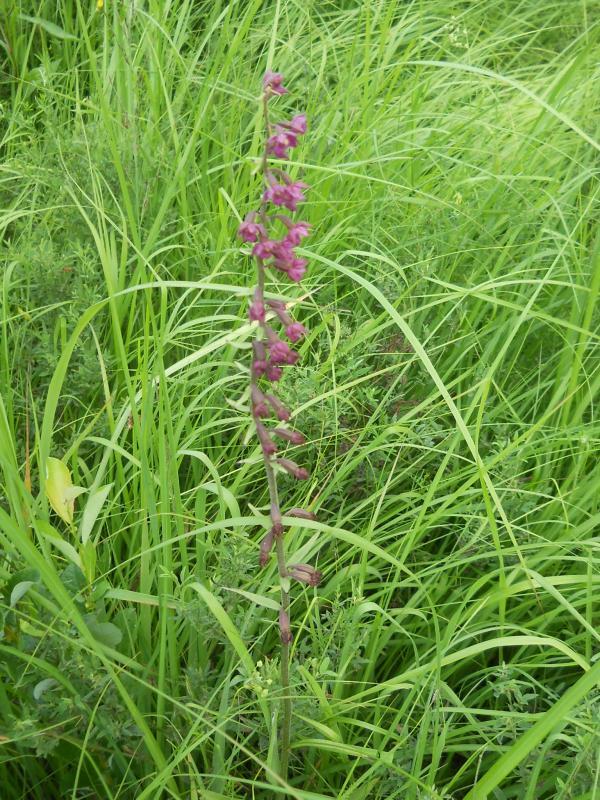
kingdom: Plantae
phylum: Tracheophyta
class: Liliopsida
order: Asparagales
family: Orchidaceae
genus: Epipactis
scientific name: Epipactis atrorubens
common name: Dark-red helleborine
